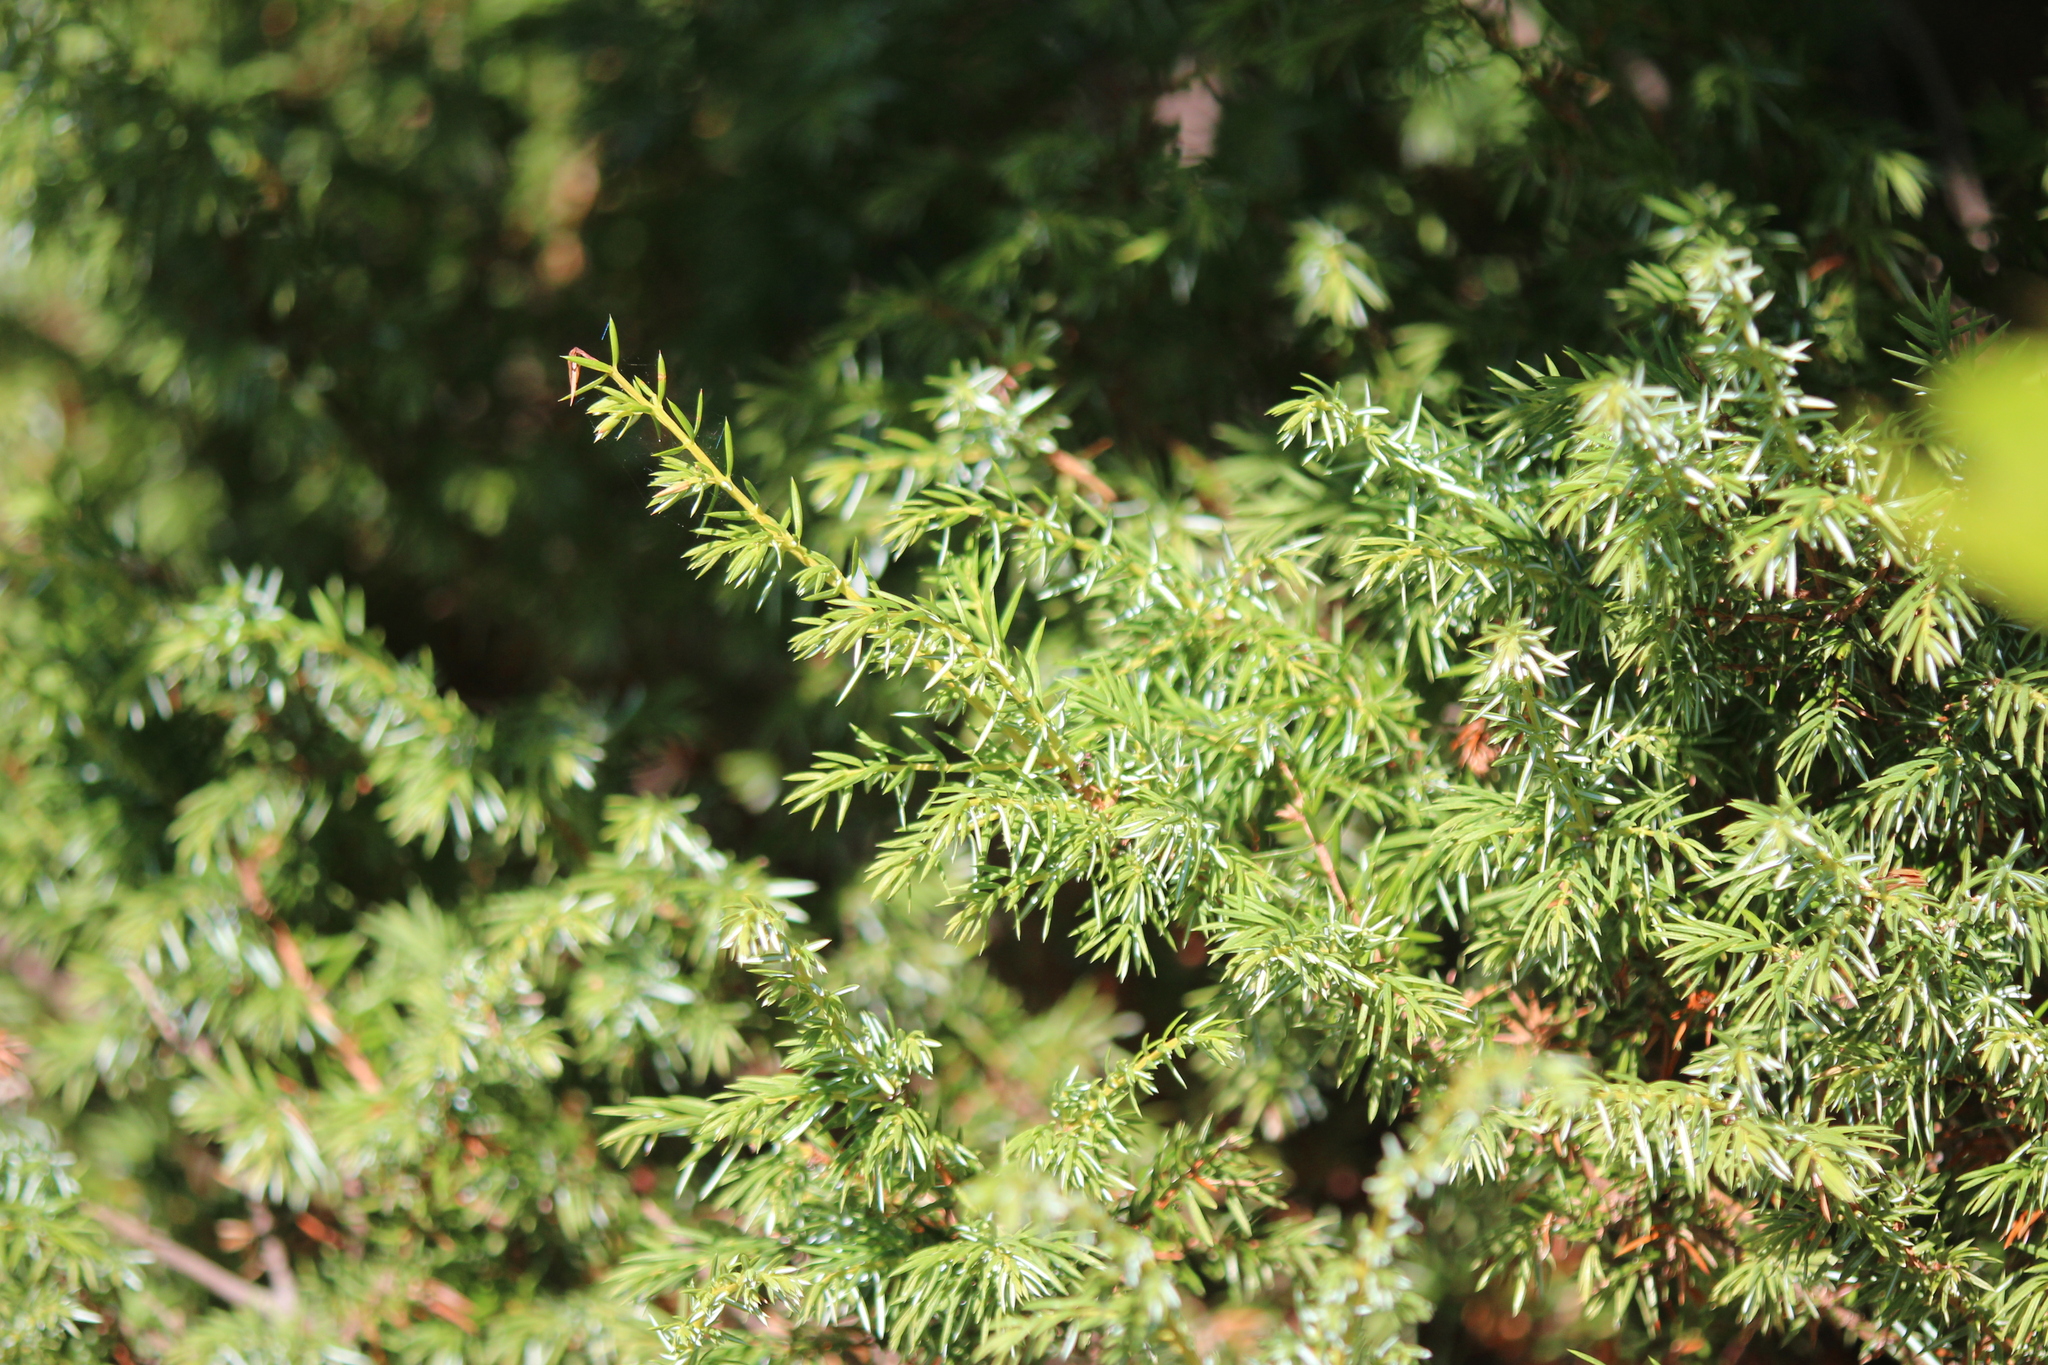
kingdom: Plantae
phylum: Tracheophyta
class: Pinopsida
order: Pinales
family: Cupressaceae
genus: Juniperus
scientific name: Juniperus communis
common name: Common juniper
